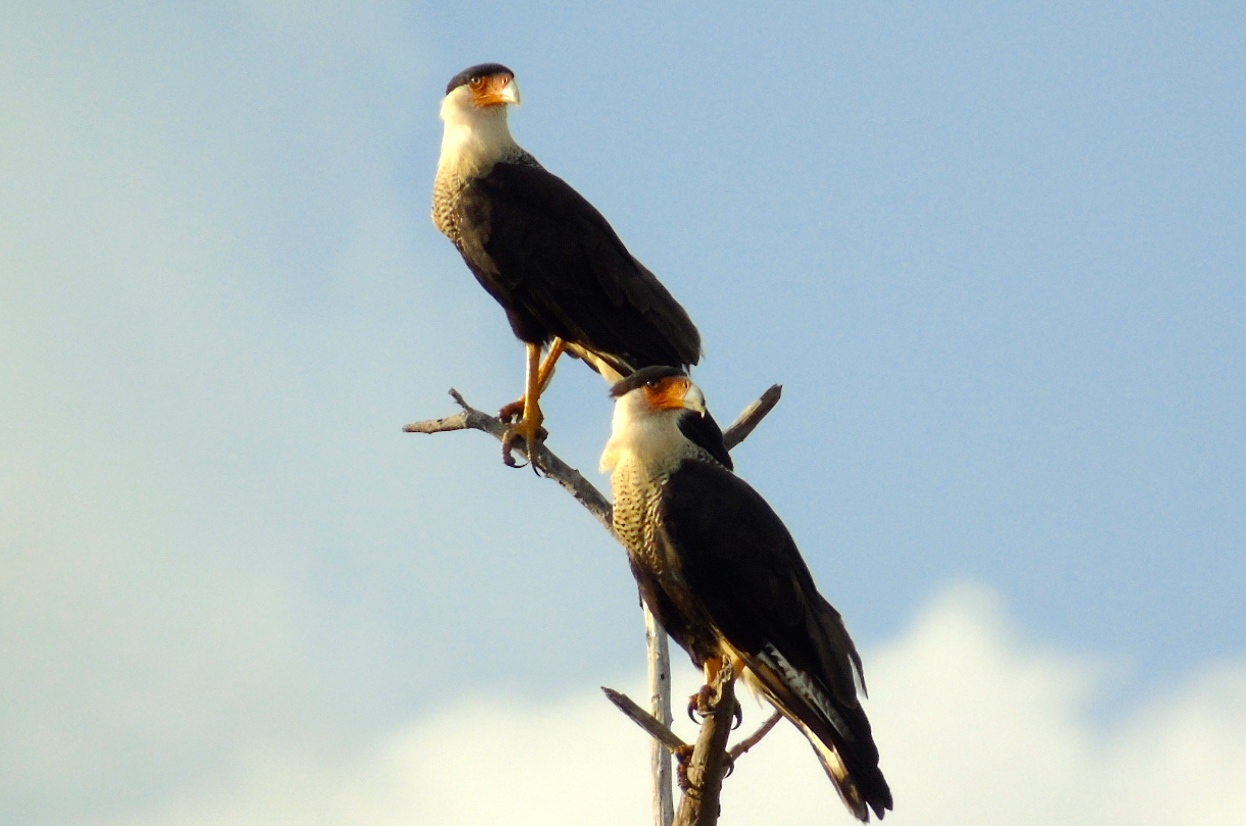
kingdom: Animalia
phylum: Chordata
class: Aves
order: Falconiformes
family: Falconidae
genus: Caracara
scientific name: Caracara plancus
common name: Southern caracara
